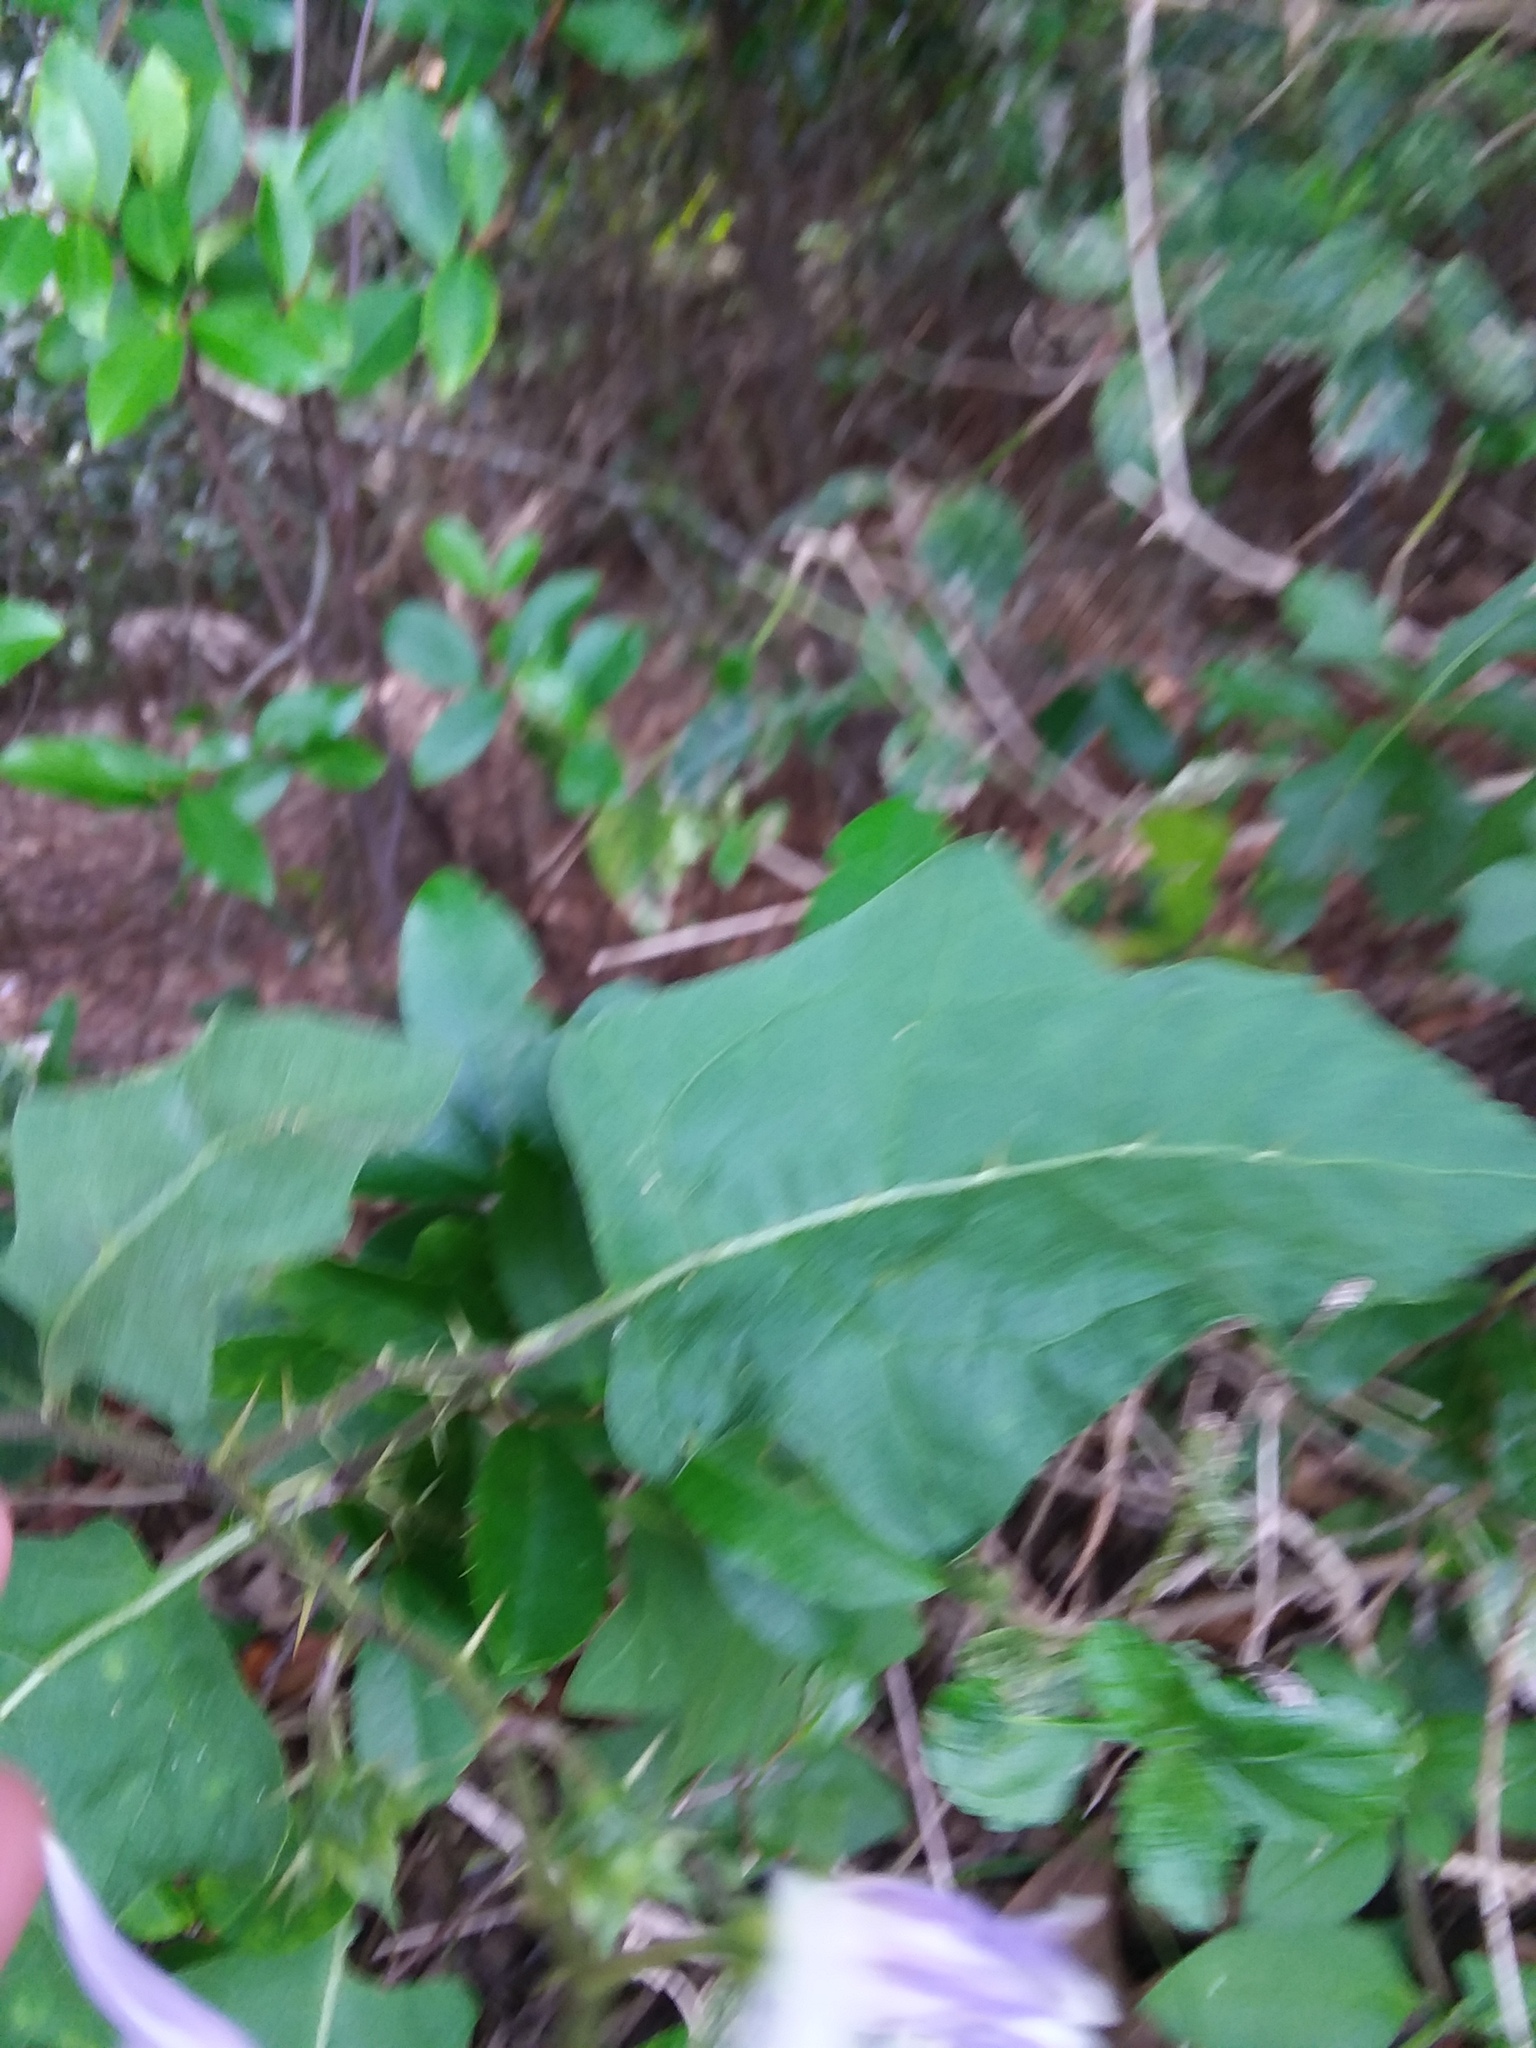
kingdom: Plantae
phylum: Tracheophyta
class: Magnoliopsida
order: Solanales
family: Solanaceae
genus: Solanum
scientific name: Solanum carolinense
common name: Horse-nettle
